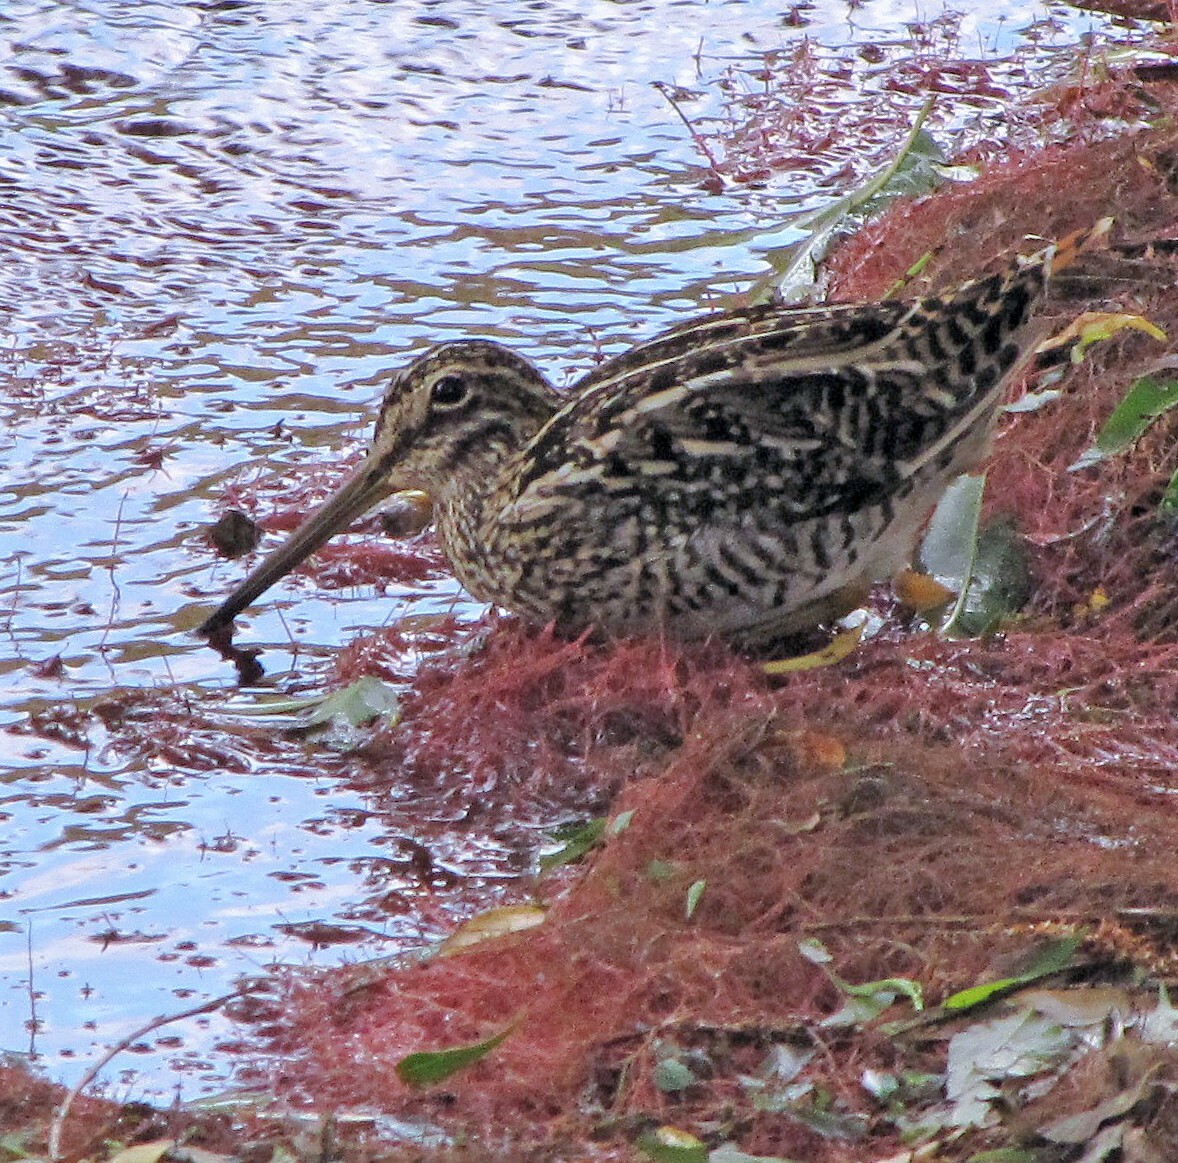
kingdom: Animalia
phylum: Chordata
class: Aves
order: Charadriiformes
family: Scolopacidae
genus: Gallinago
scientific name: Gallinago magellanica
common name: Magellanic snipe
